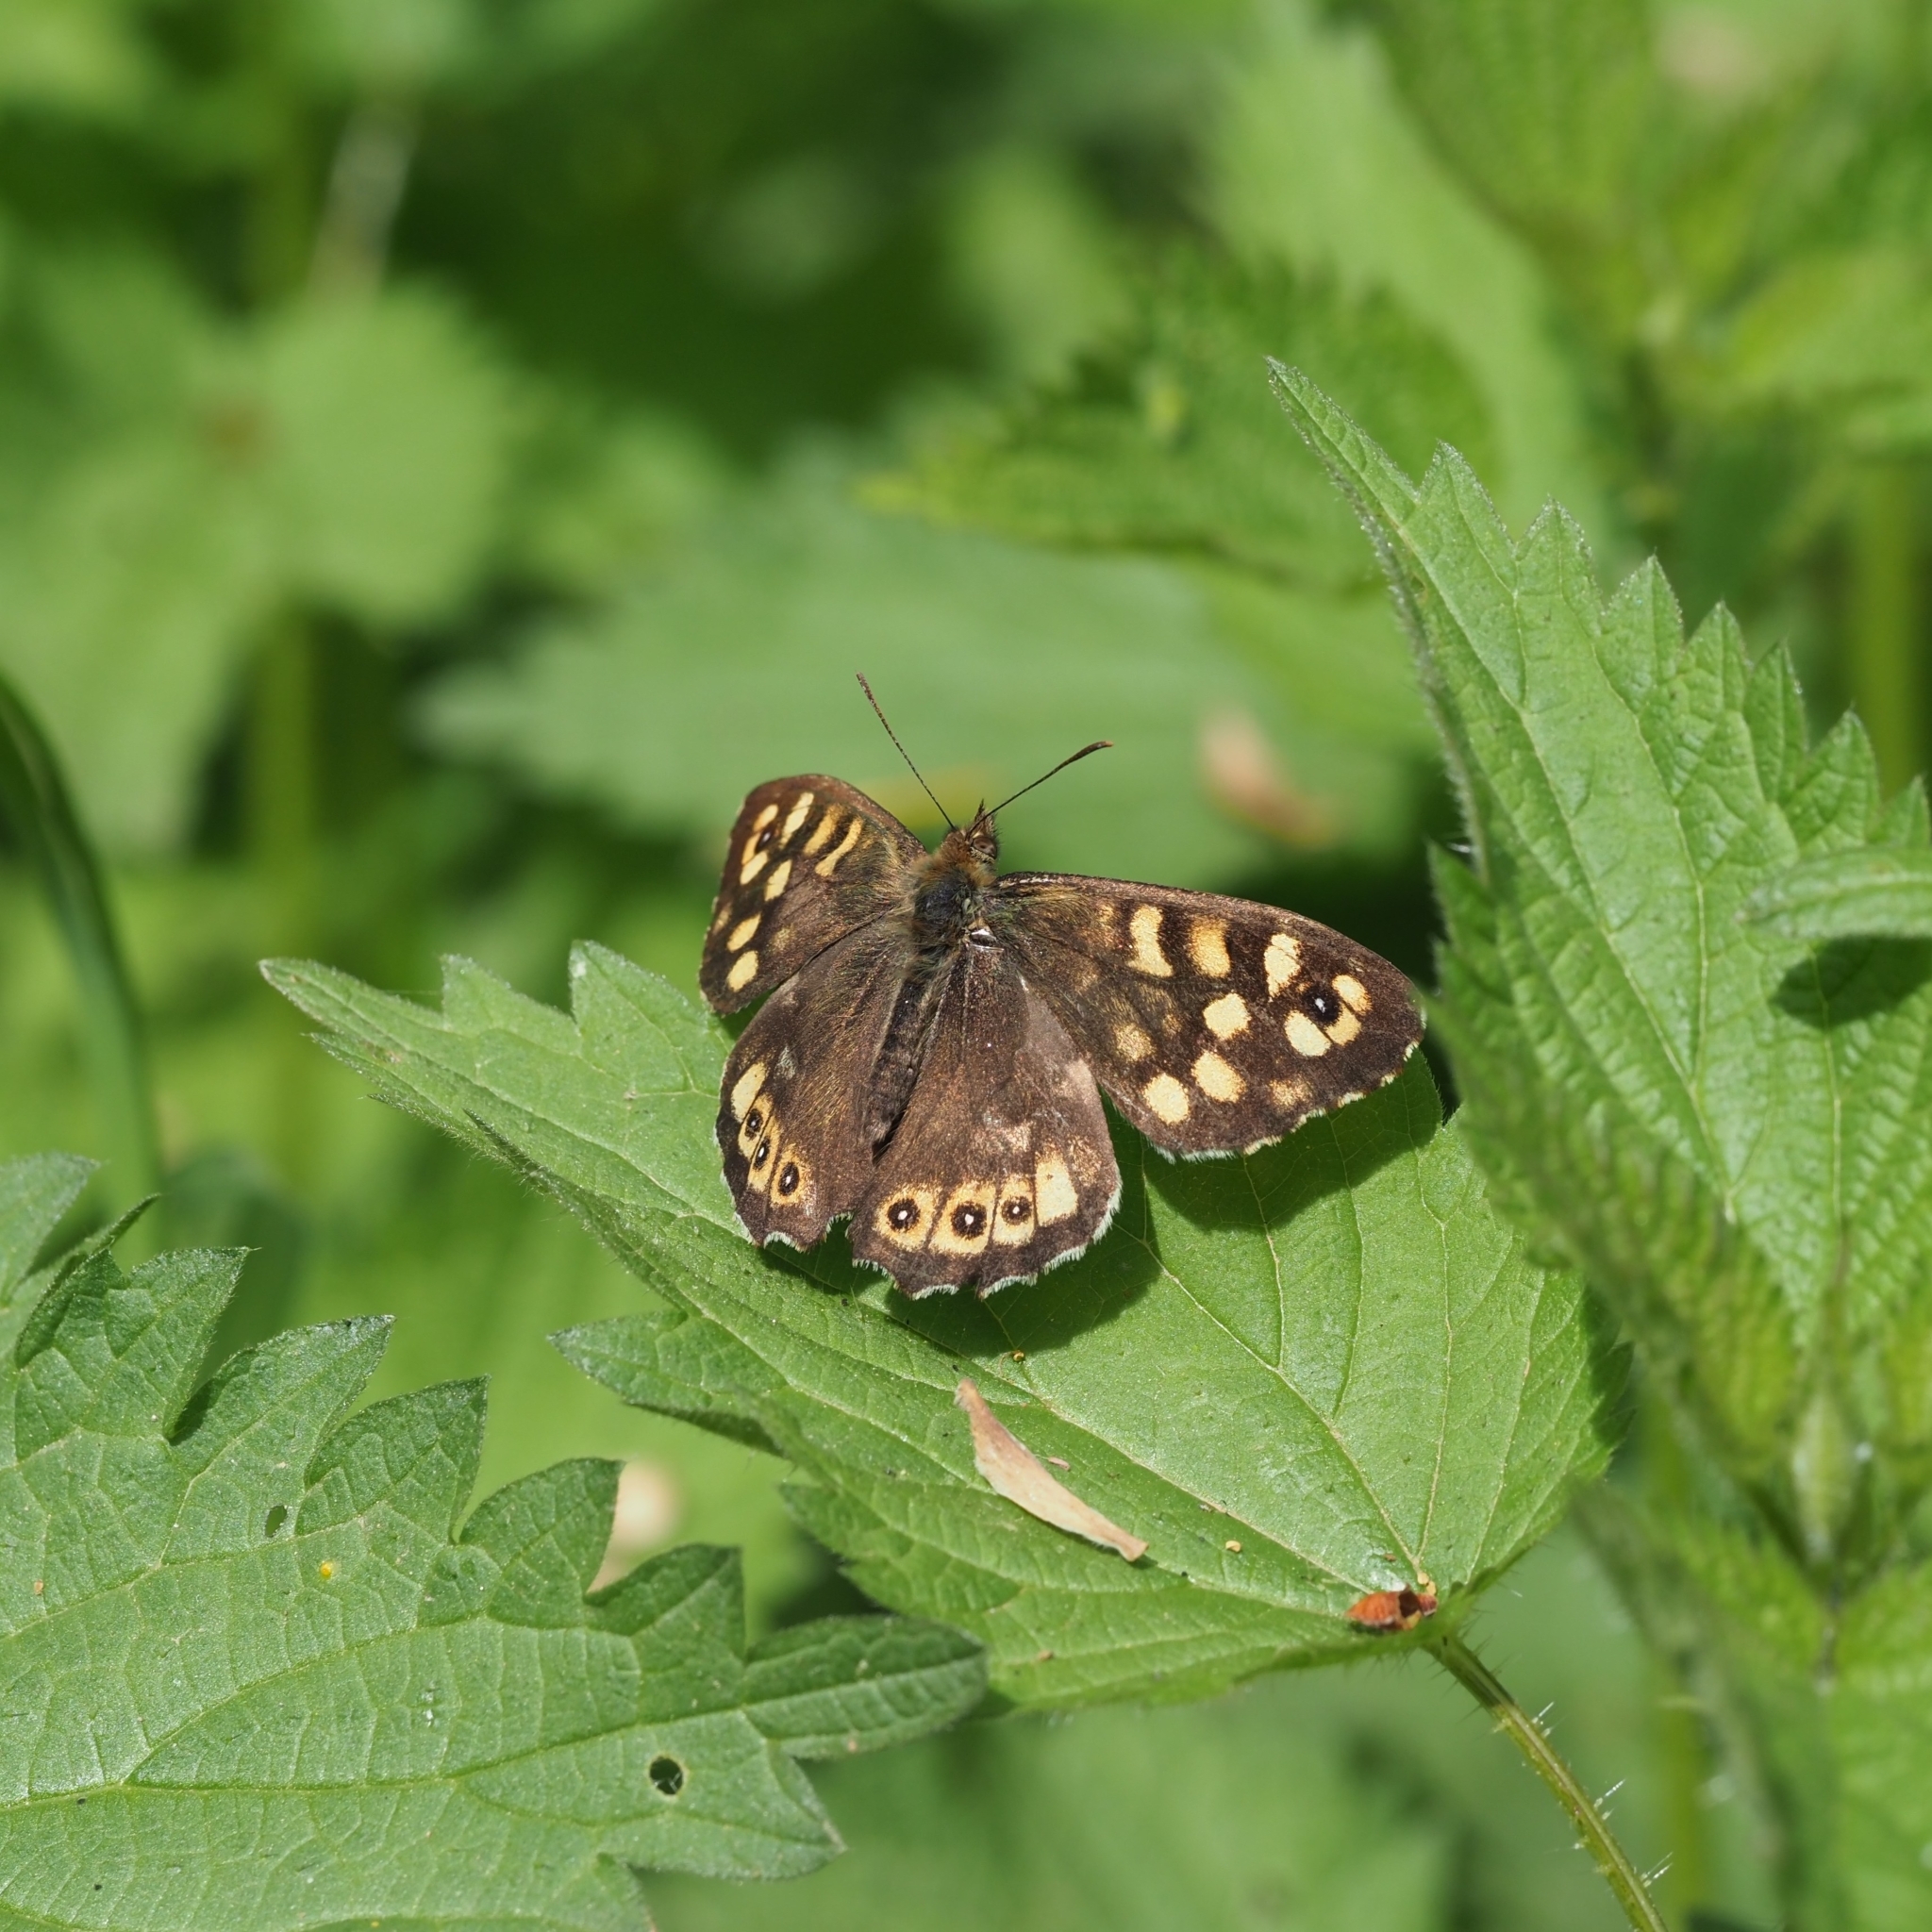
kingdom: Animalia
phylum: Arthropoda
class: Insecta
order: Lepidoptera
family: Nymphalidae
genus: Pararge
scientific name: Pararge aegeria
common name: Speckled wood
